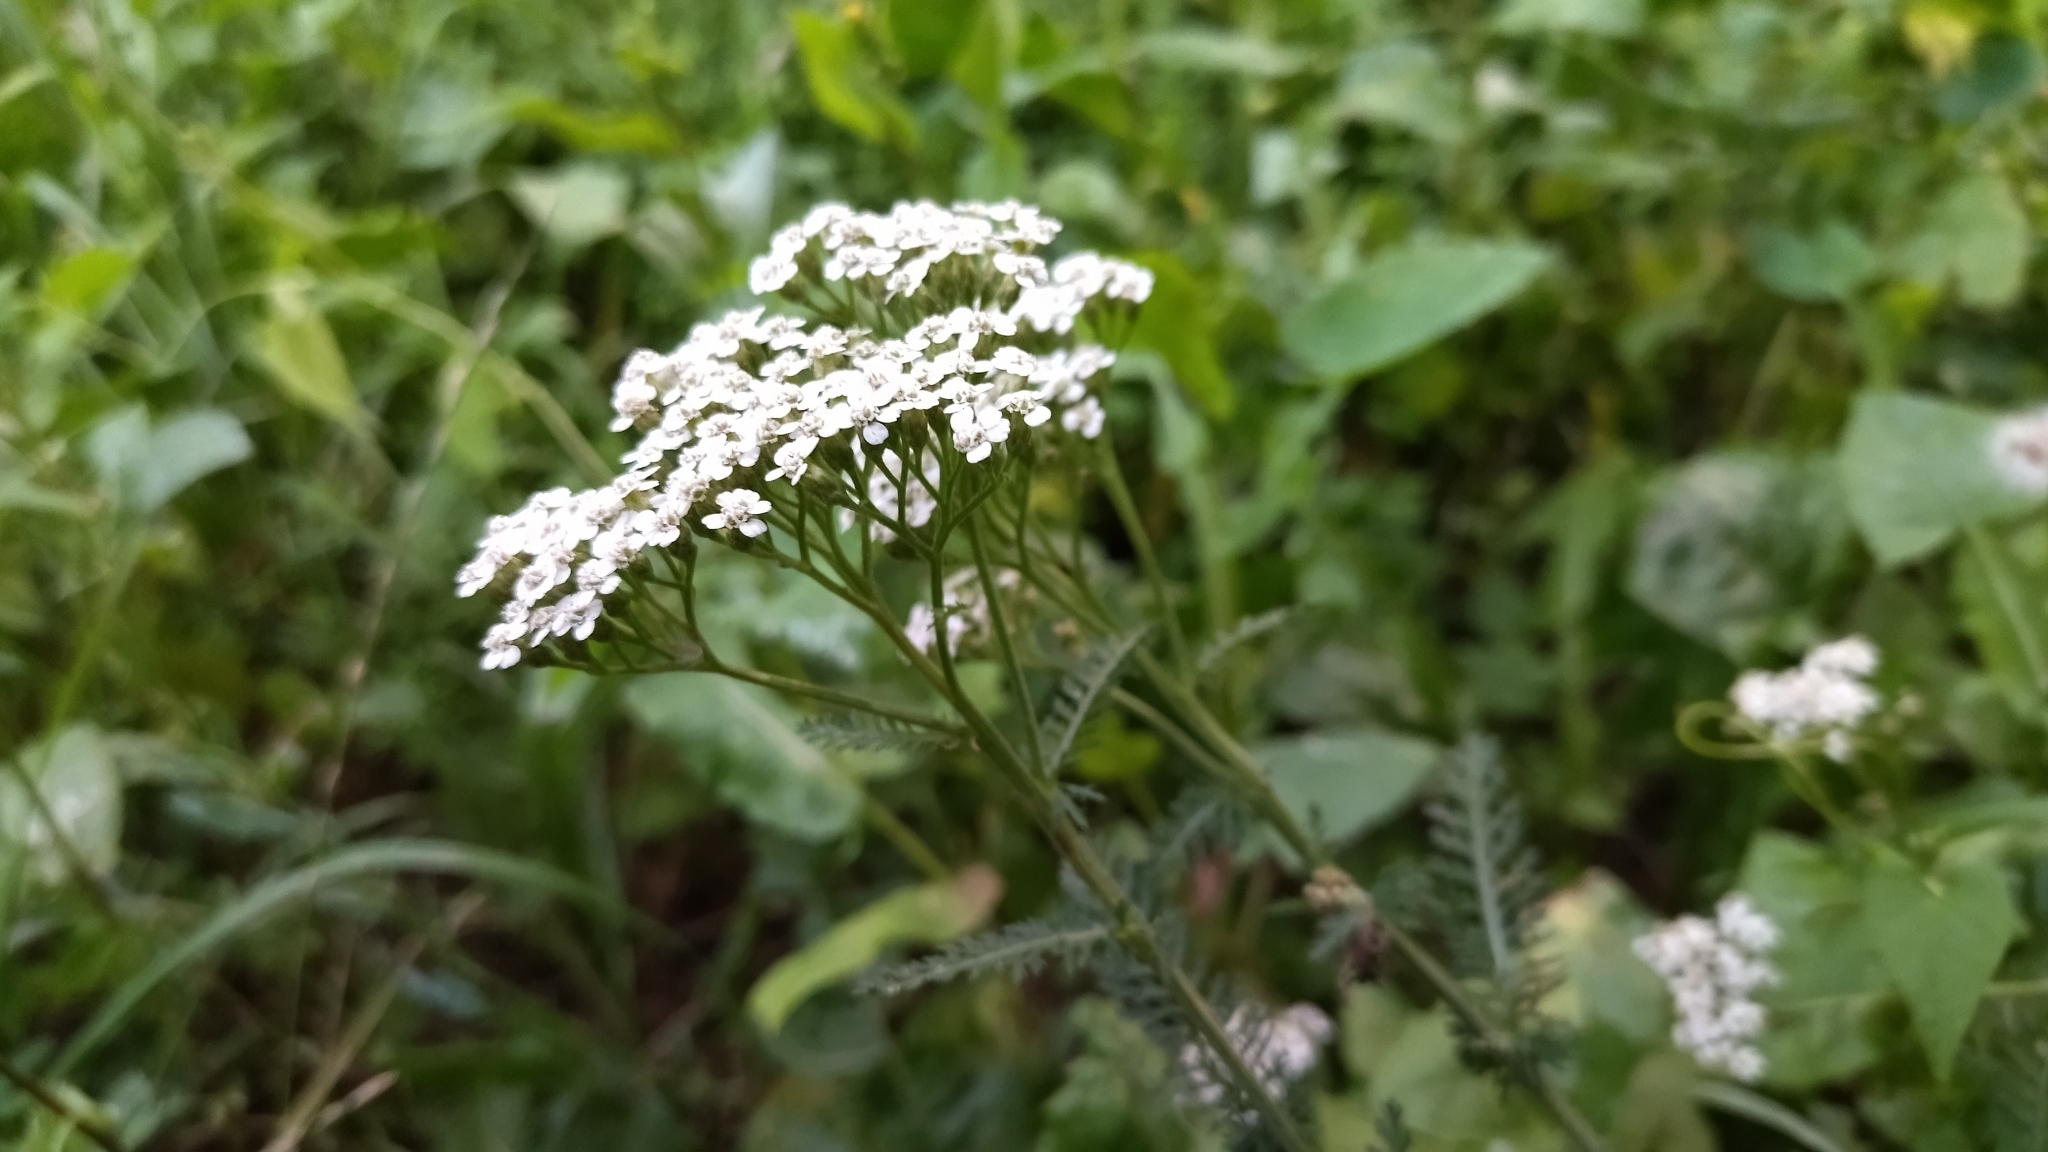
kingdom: Plantae
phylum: Tracheophyta
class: Magnoliopsida
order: Asterales
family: Asteraceae
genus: Achillea
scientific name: Achillea millefolium
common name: Yarrow
